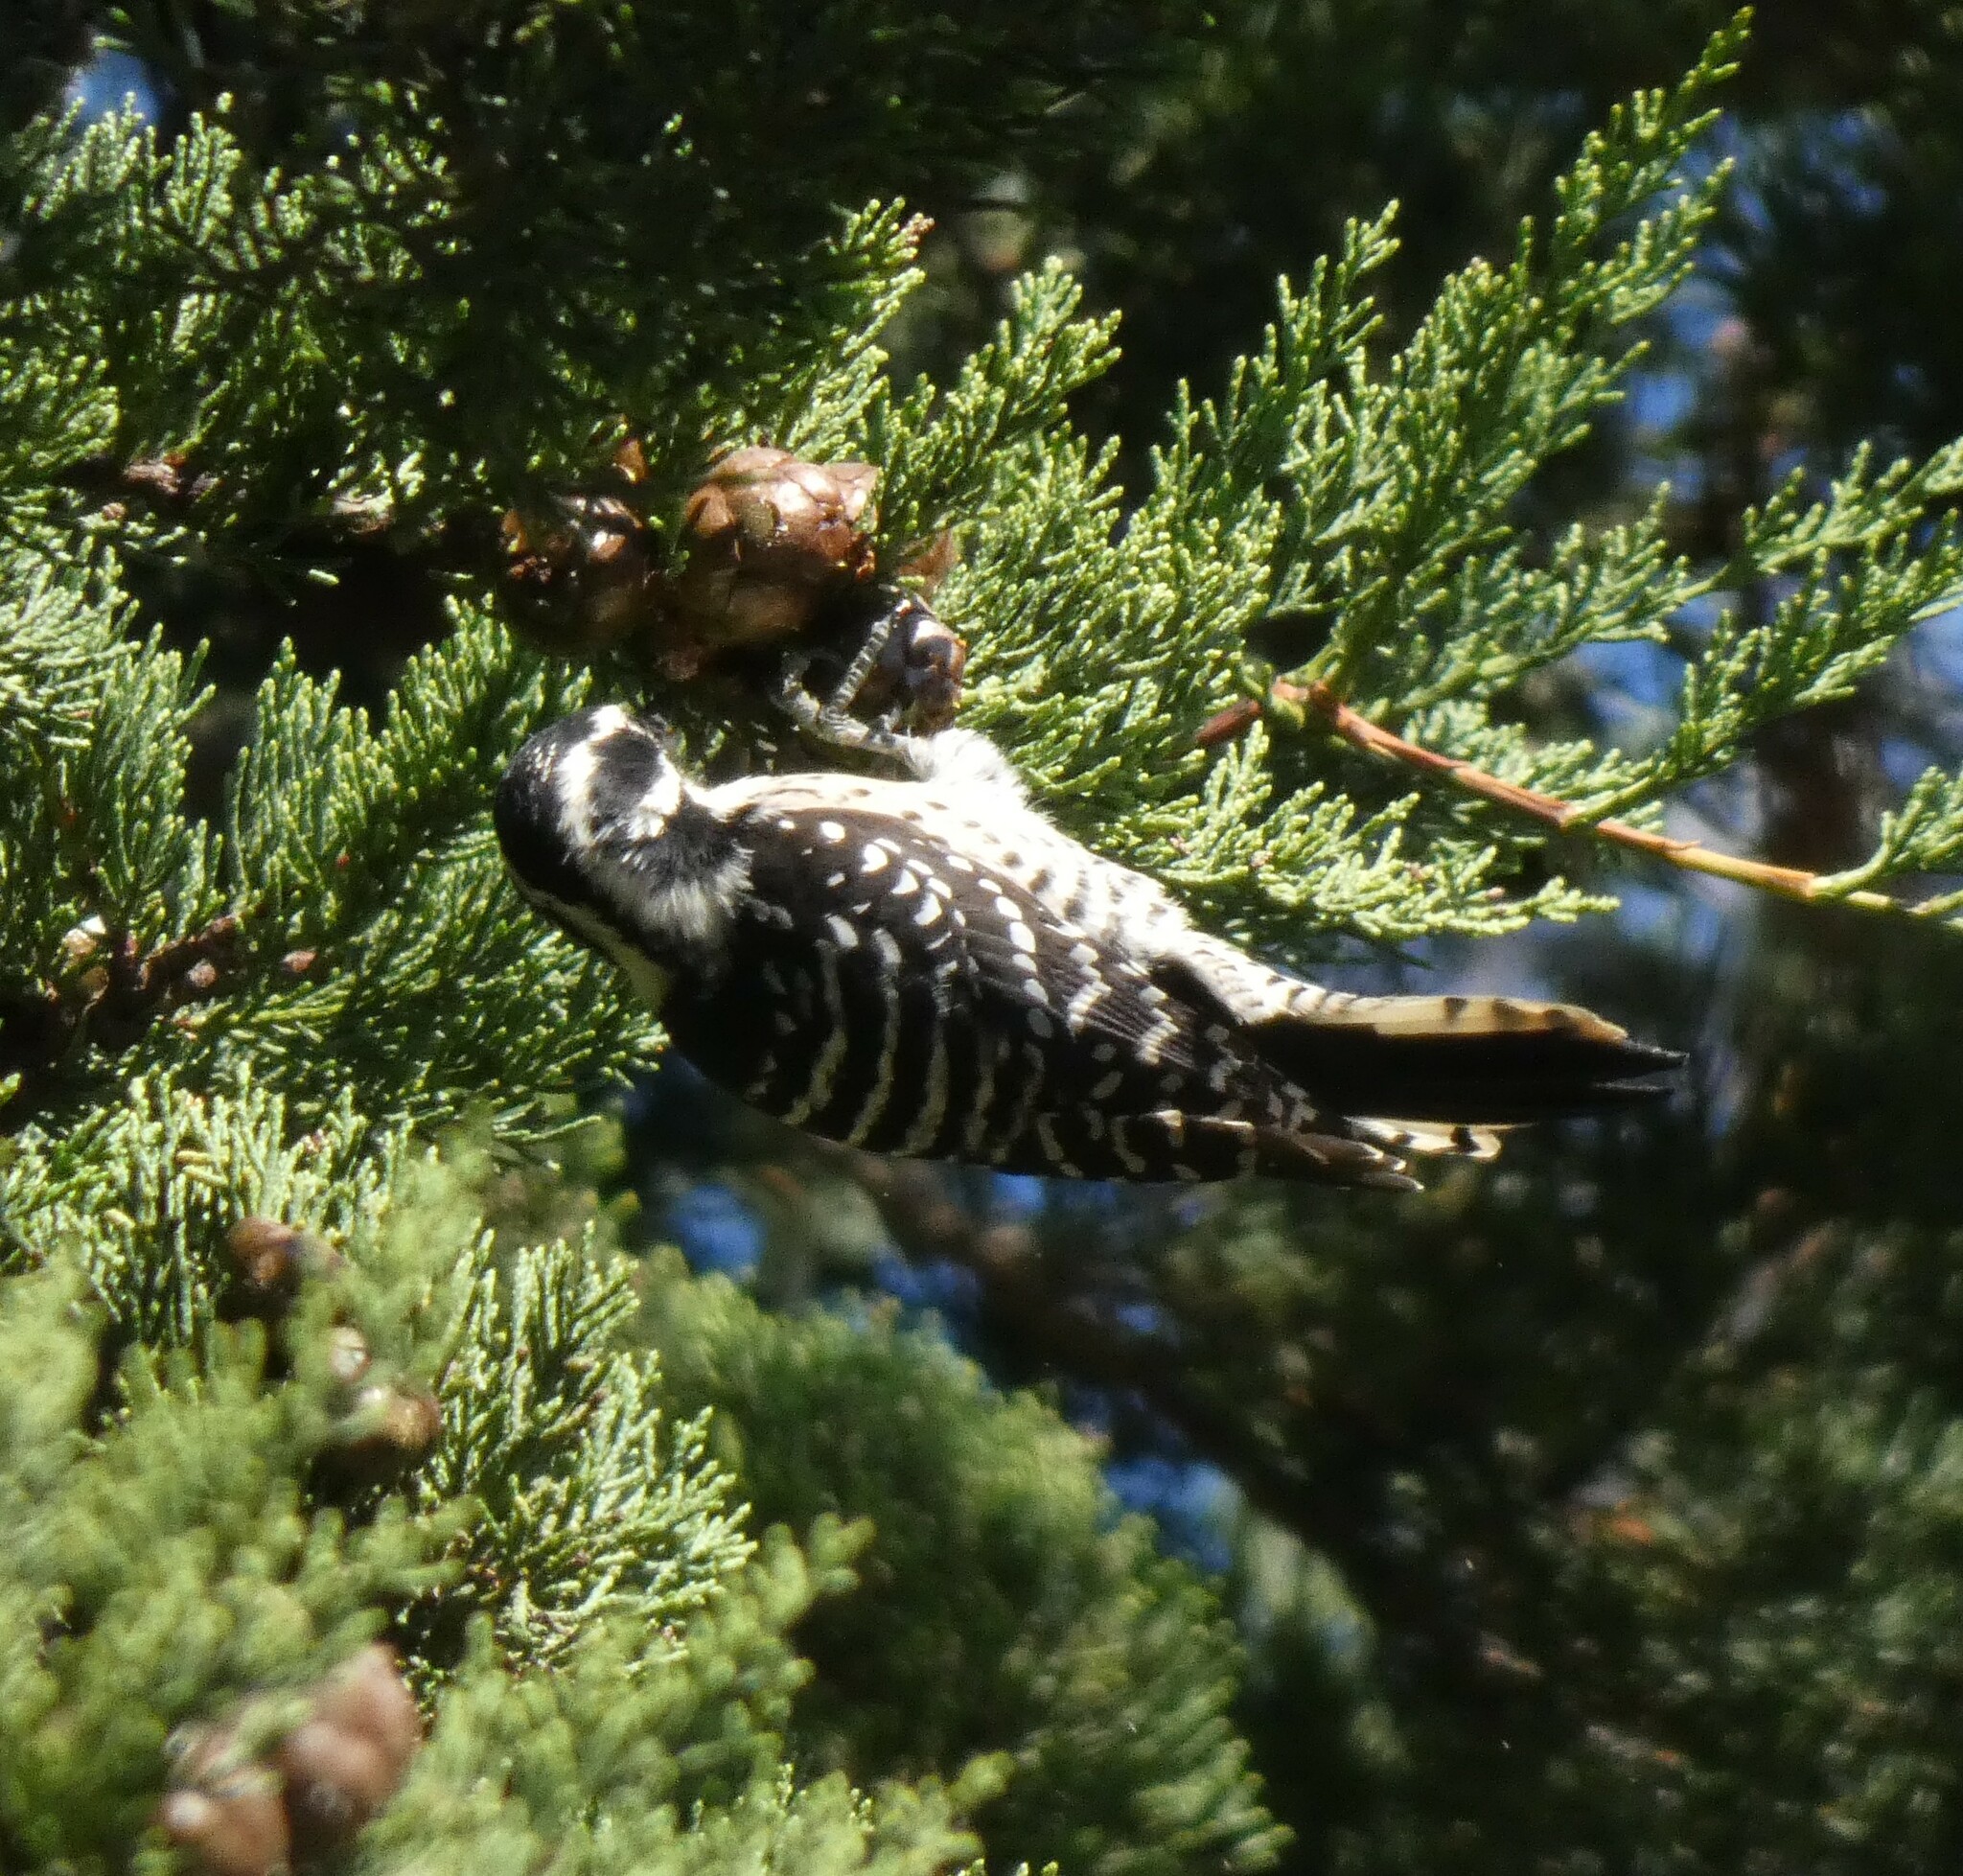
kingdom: Animalia
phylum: Chordata
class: Aves
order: Piciformes
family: Picidae
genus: Dryobates
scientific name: Dryobates nuttallii
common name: Nuttall's woodpecker
